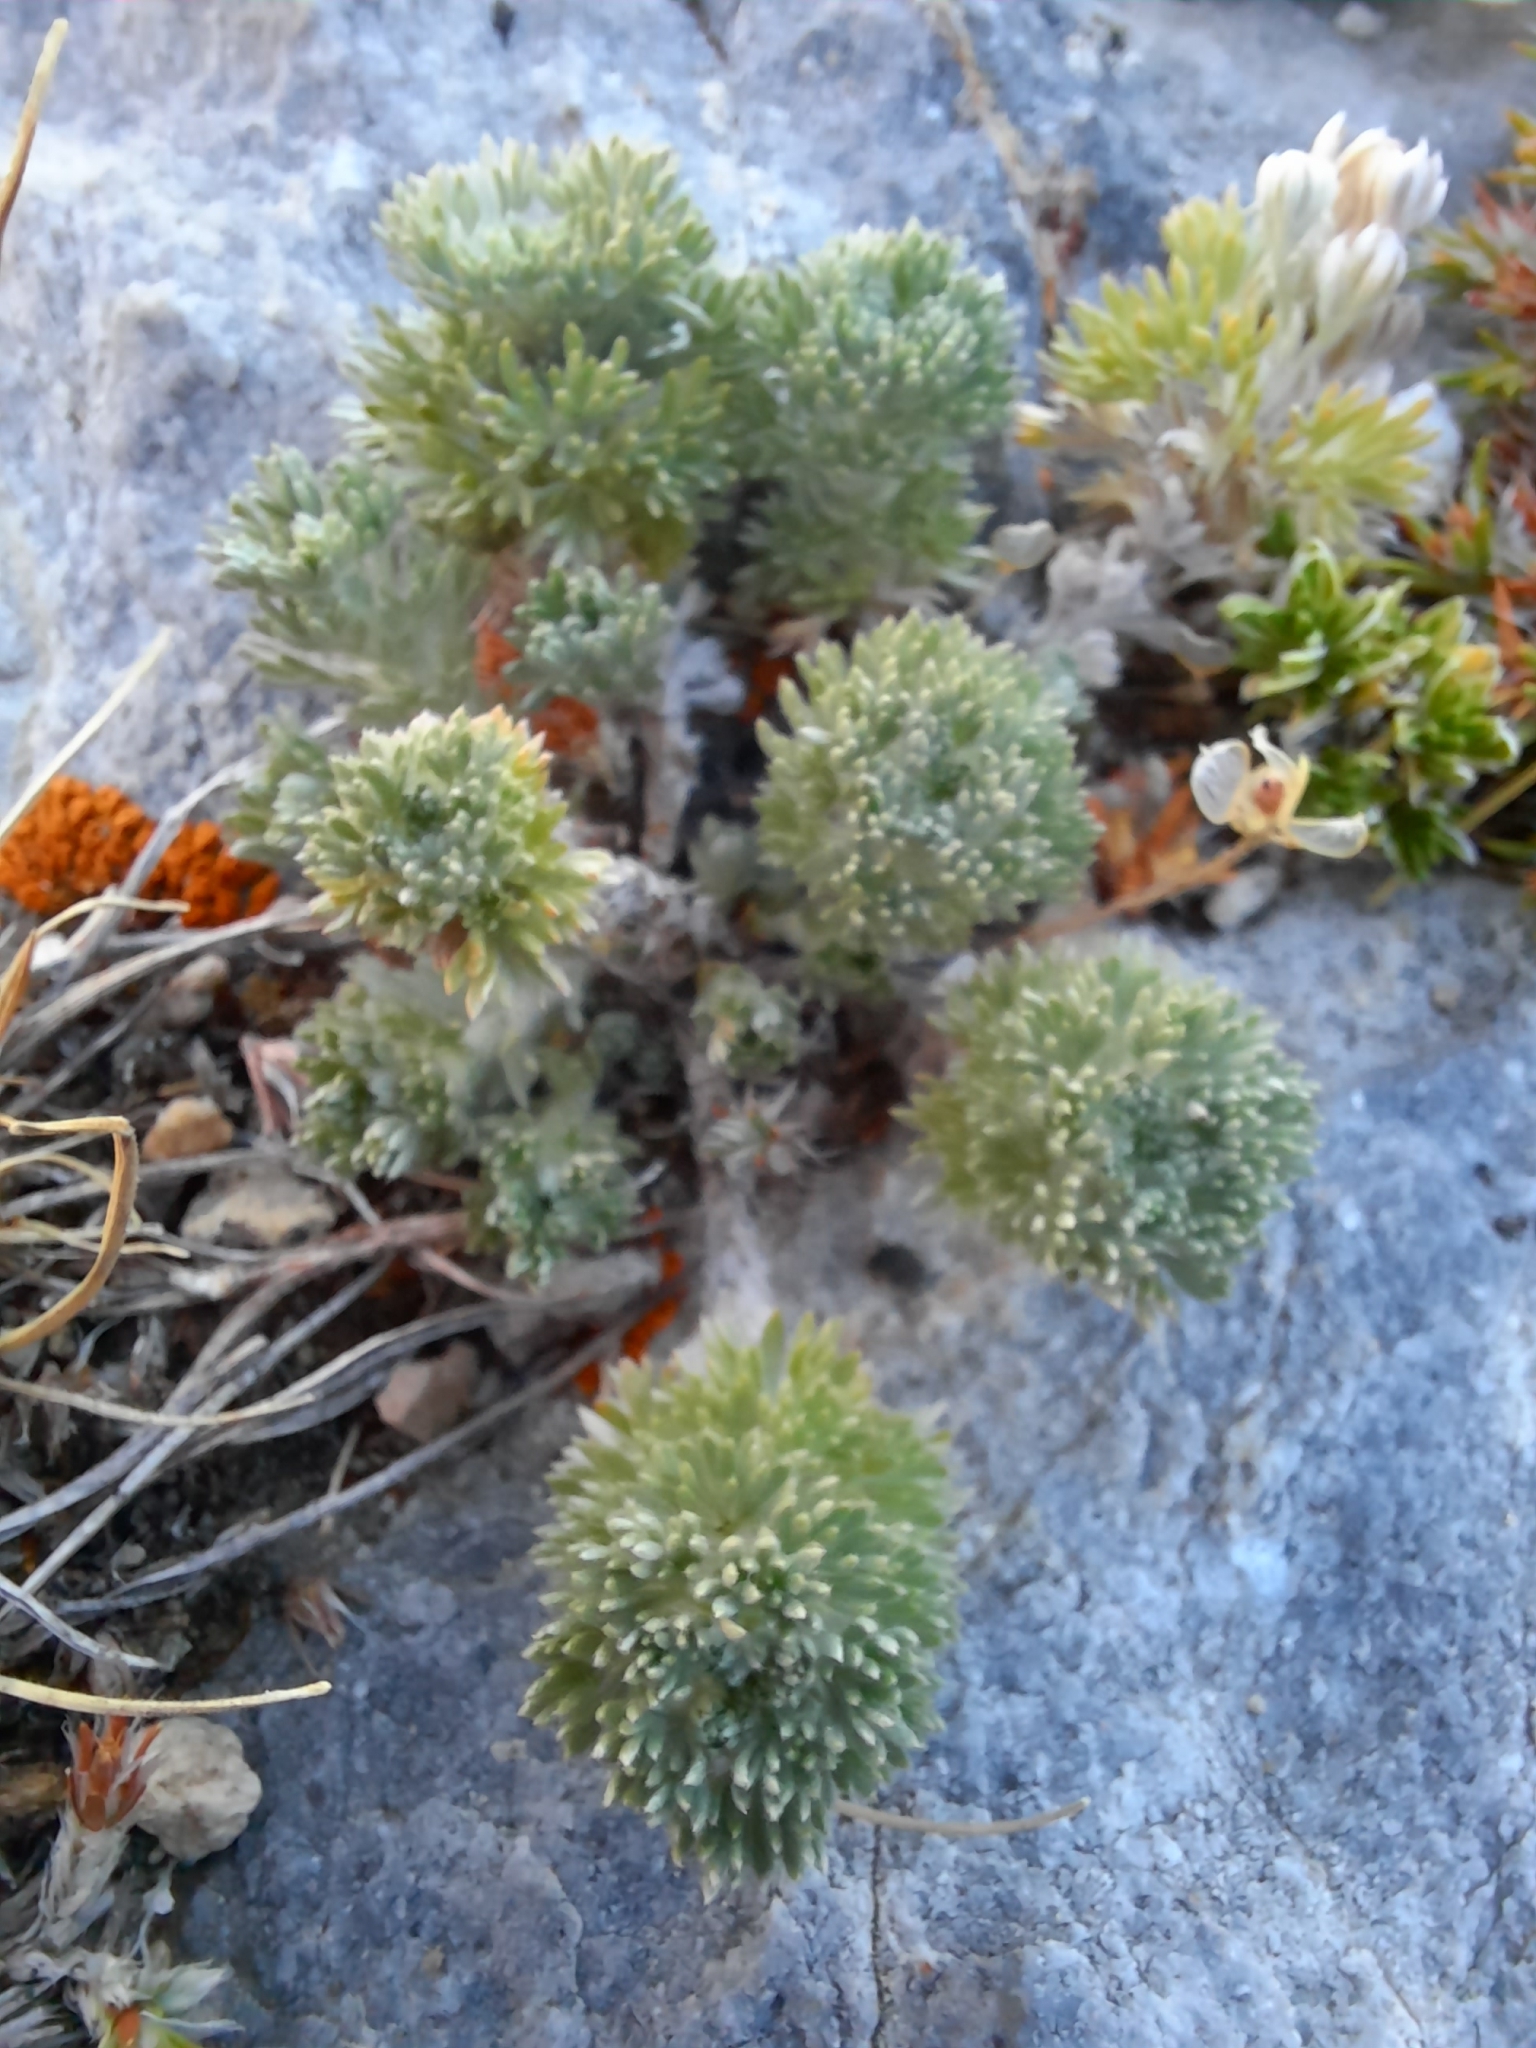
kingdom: Plantae
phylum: Tracheophyta
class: Magnoliopsida
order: Asterales
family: Asteraceae
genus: Artemisia
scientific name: Artemisia frigida
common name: Prairie sagewort
